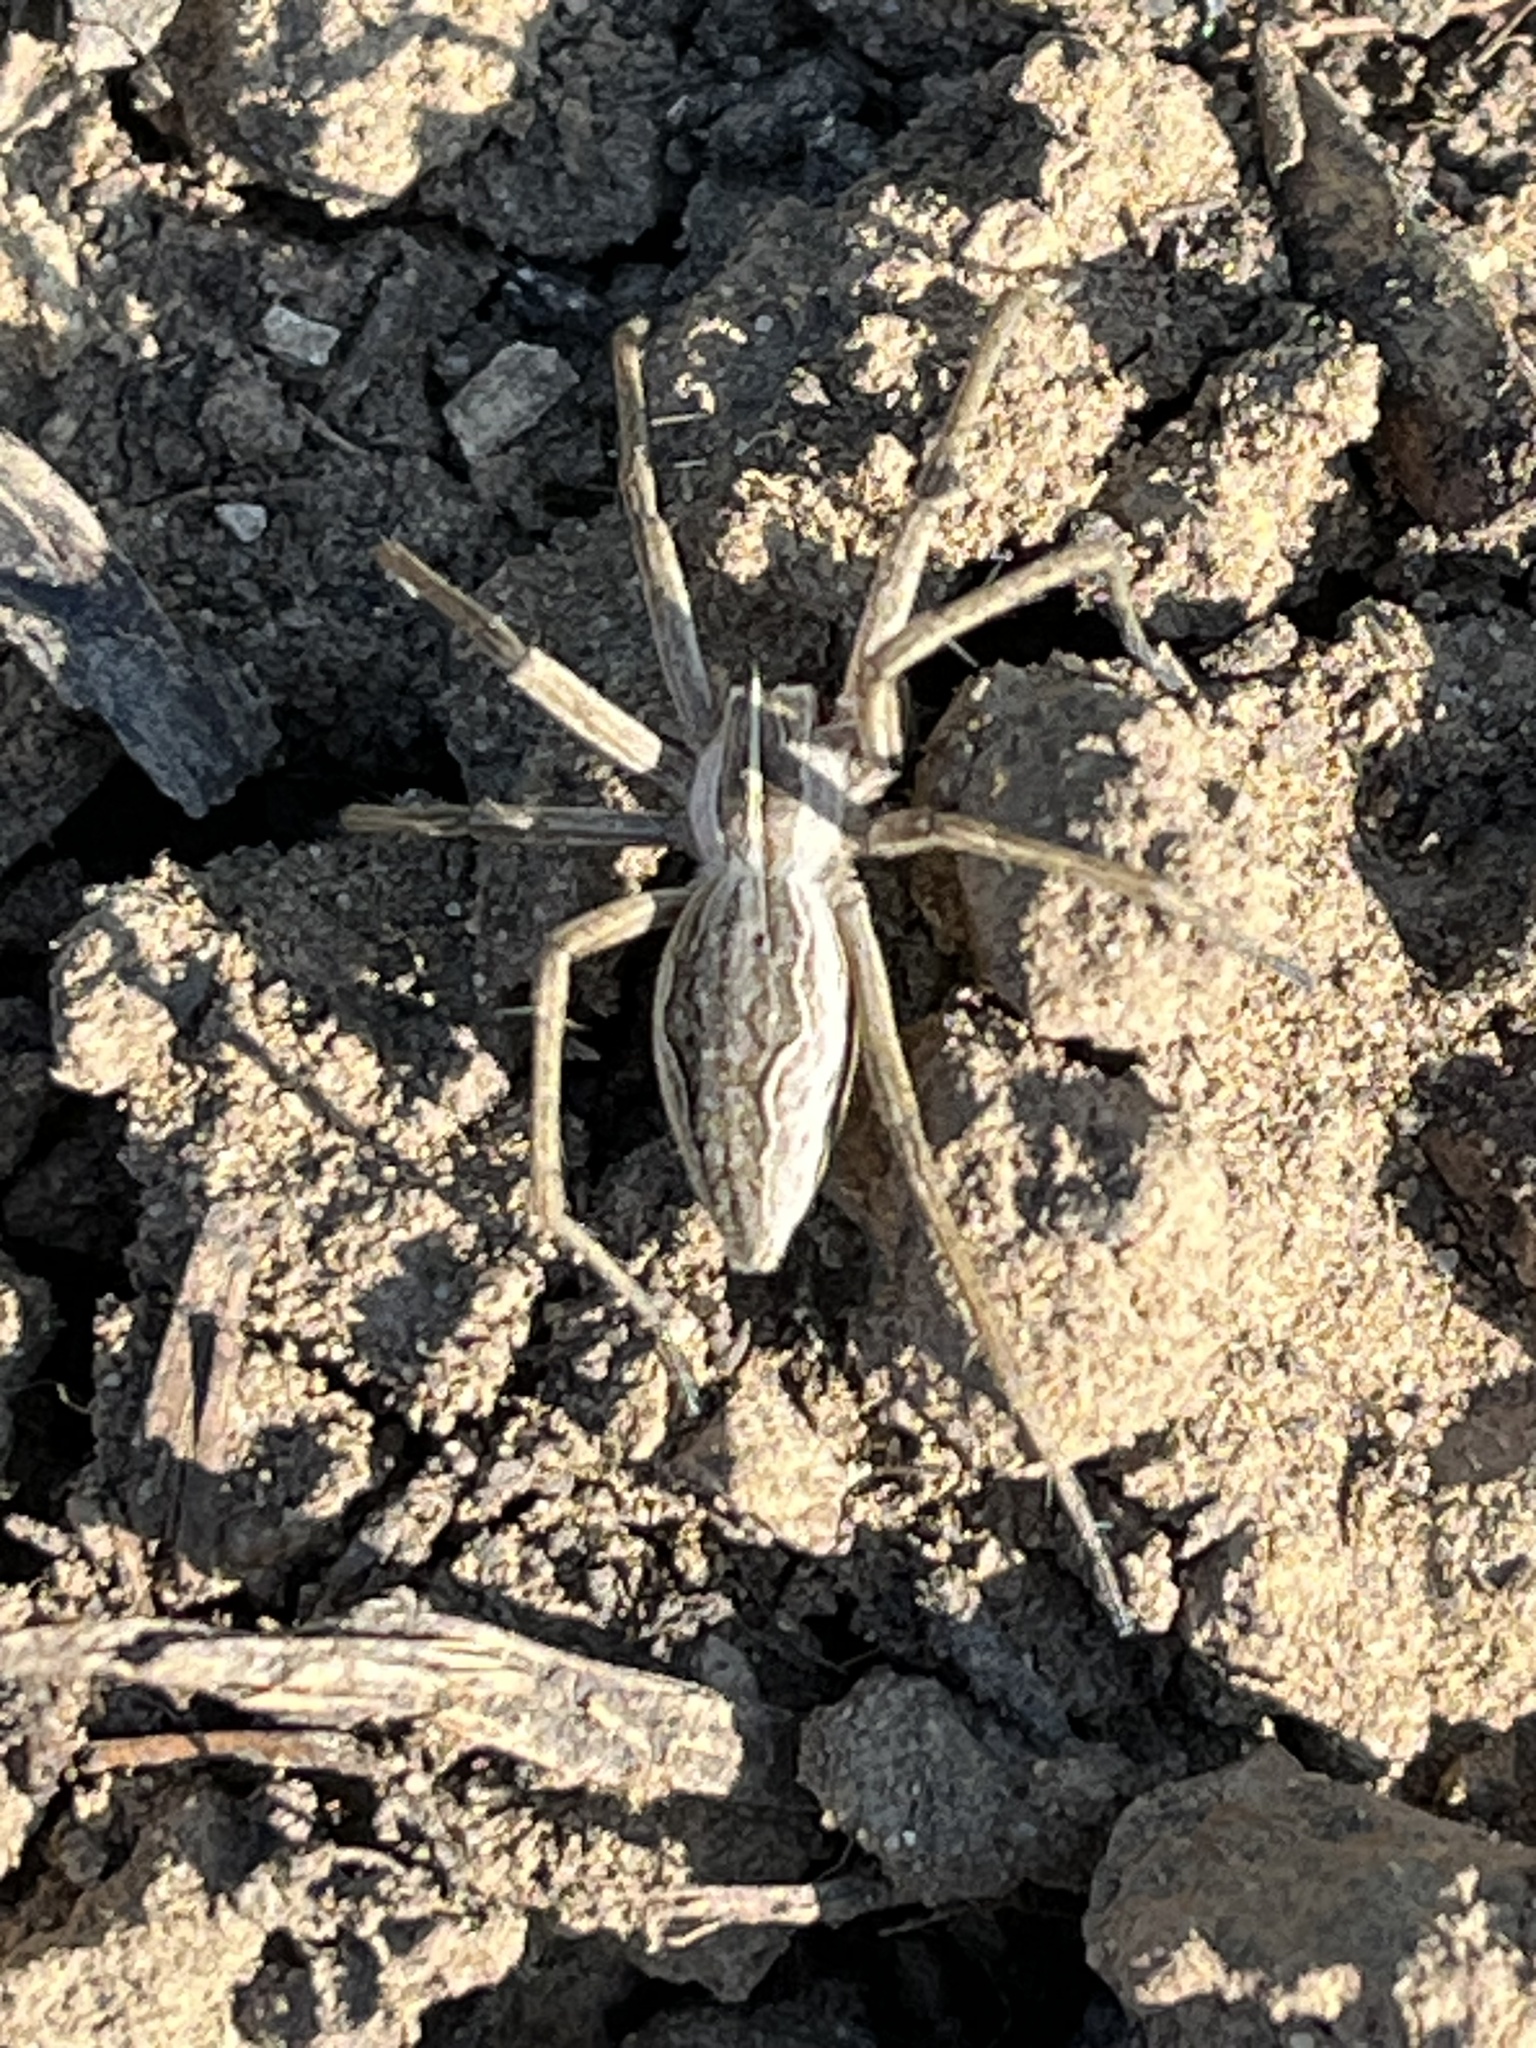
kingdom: Animalia
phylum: Arthropoda
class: Arachnida
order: Araneae
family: Pisauridae
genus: Pisaura
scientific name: Pisaura mirabilis
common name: Tent spider
